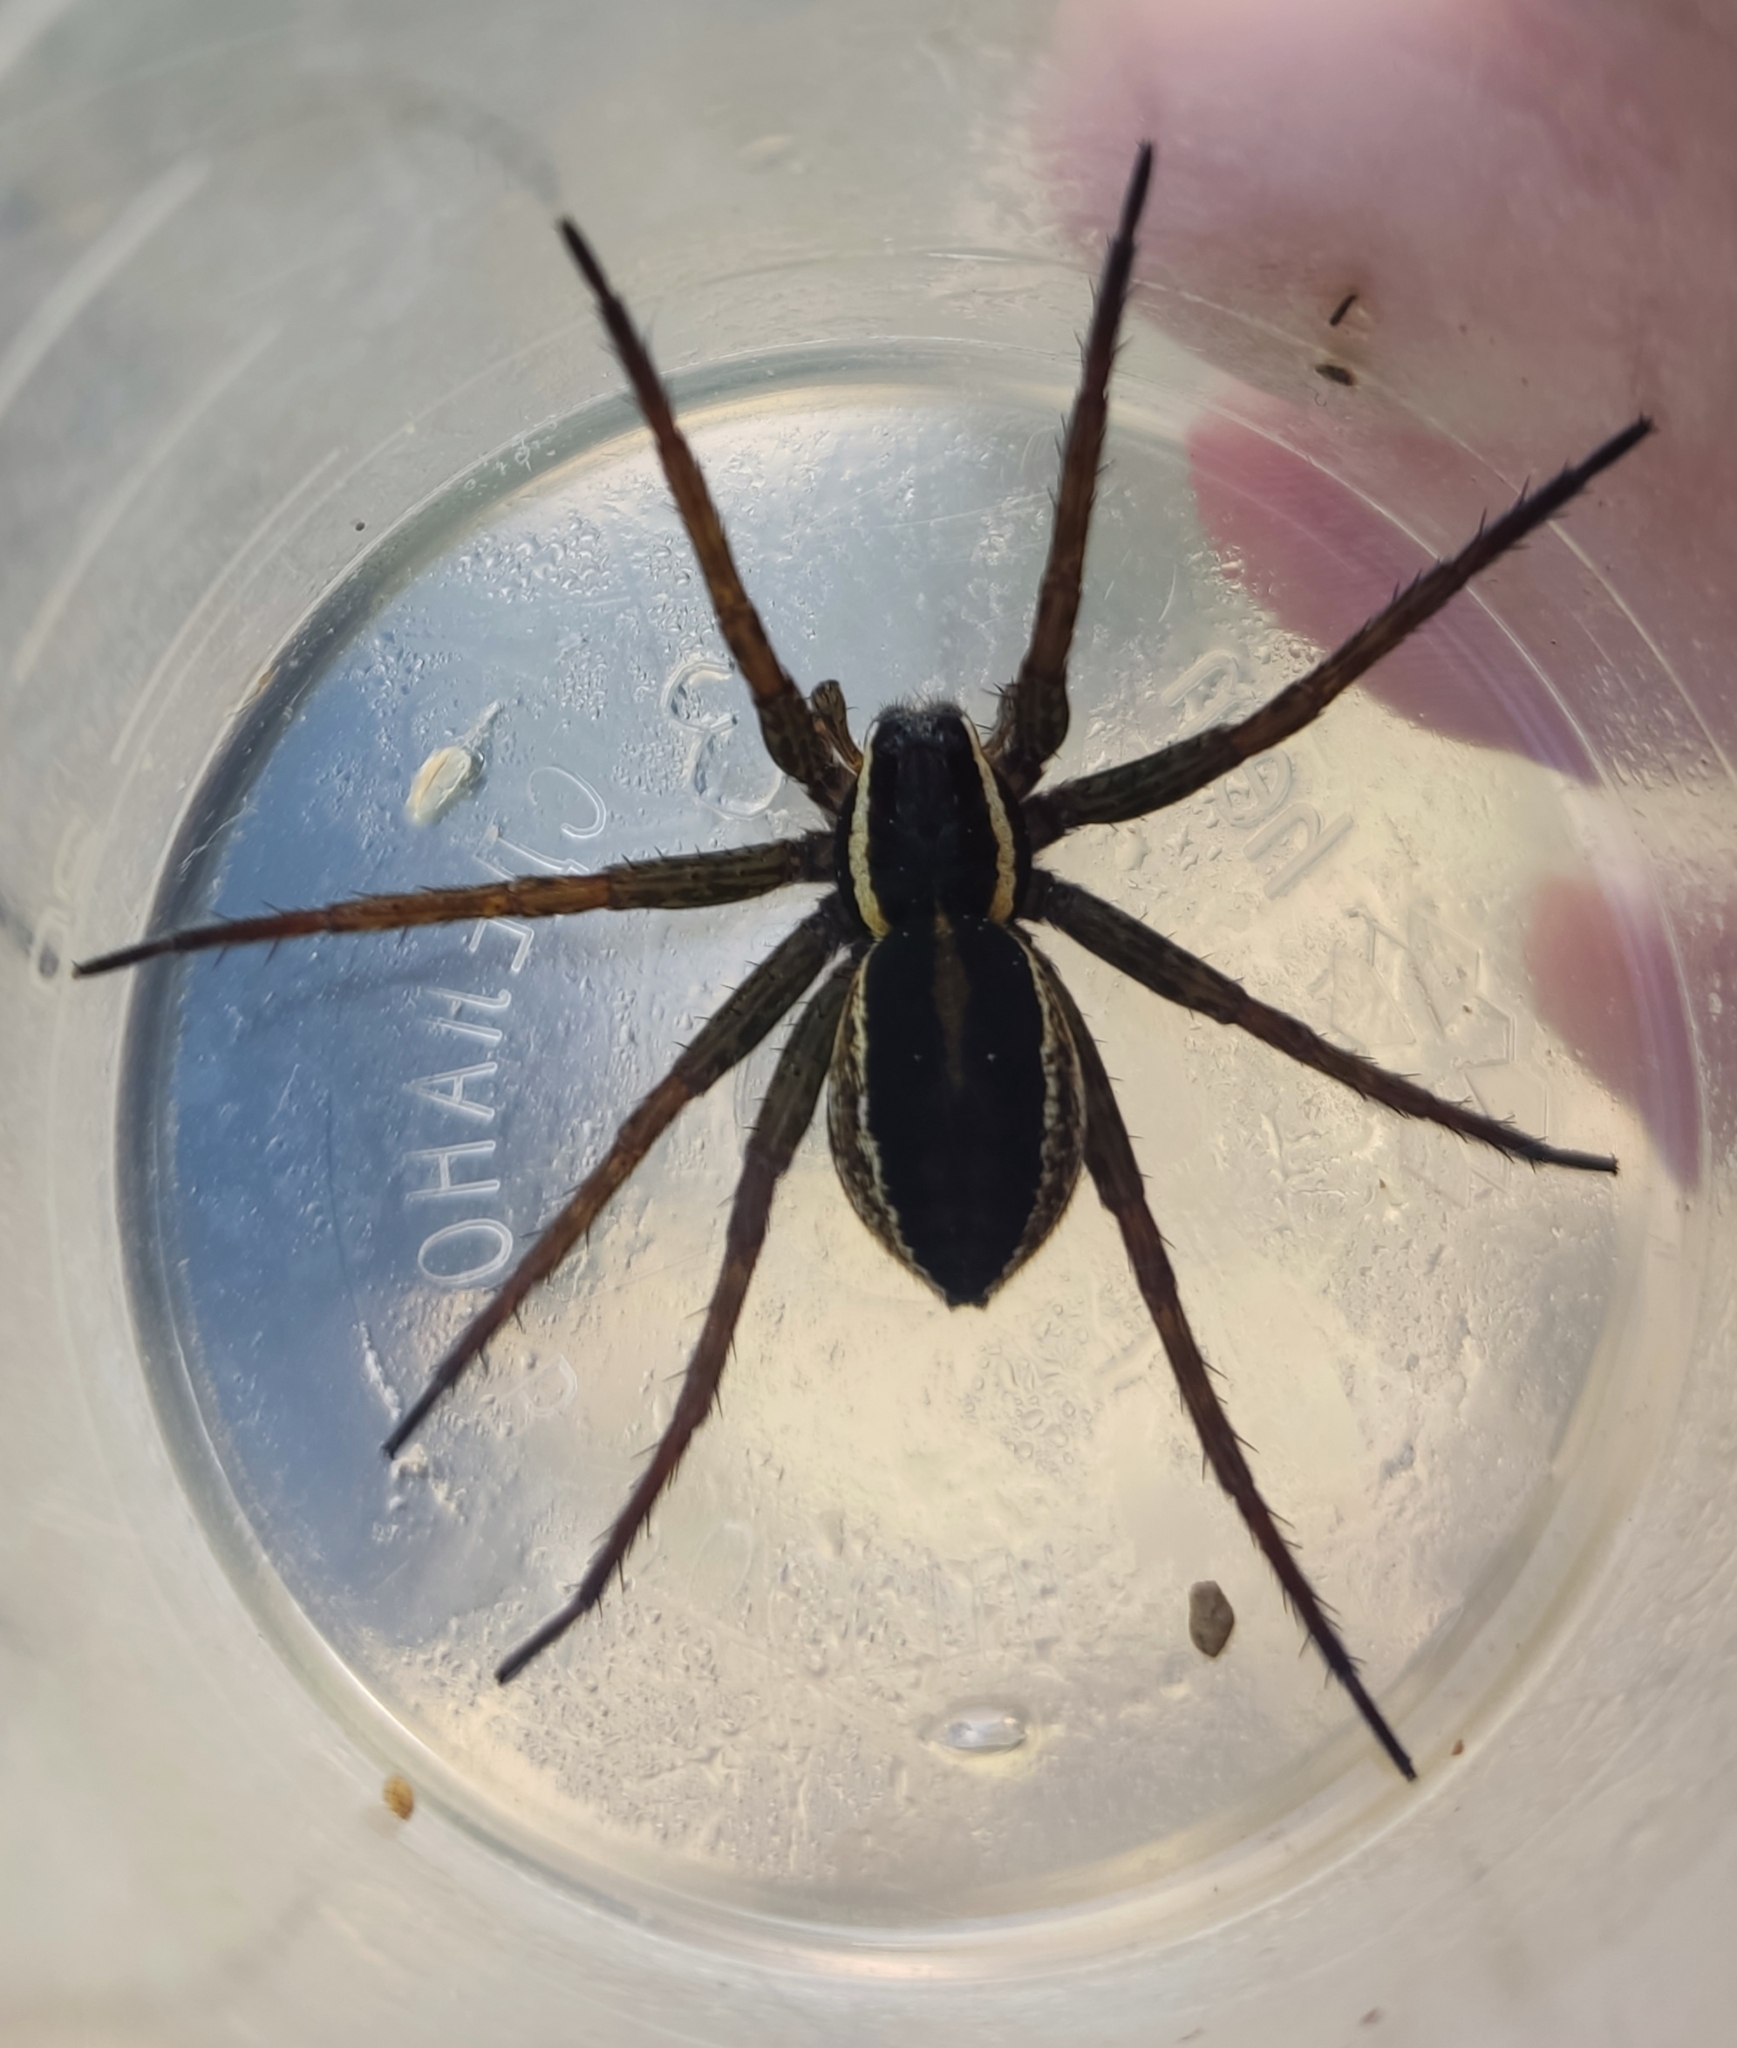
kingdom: Animalia
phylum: Arthropoda
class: Arachnida
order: Araneae
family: Pisauridae
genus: Dolomedes
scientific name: Dolomedes
